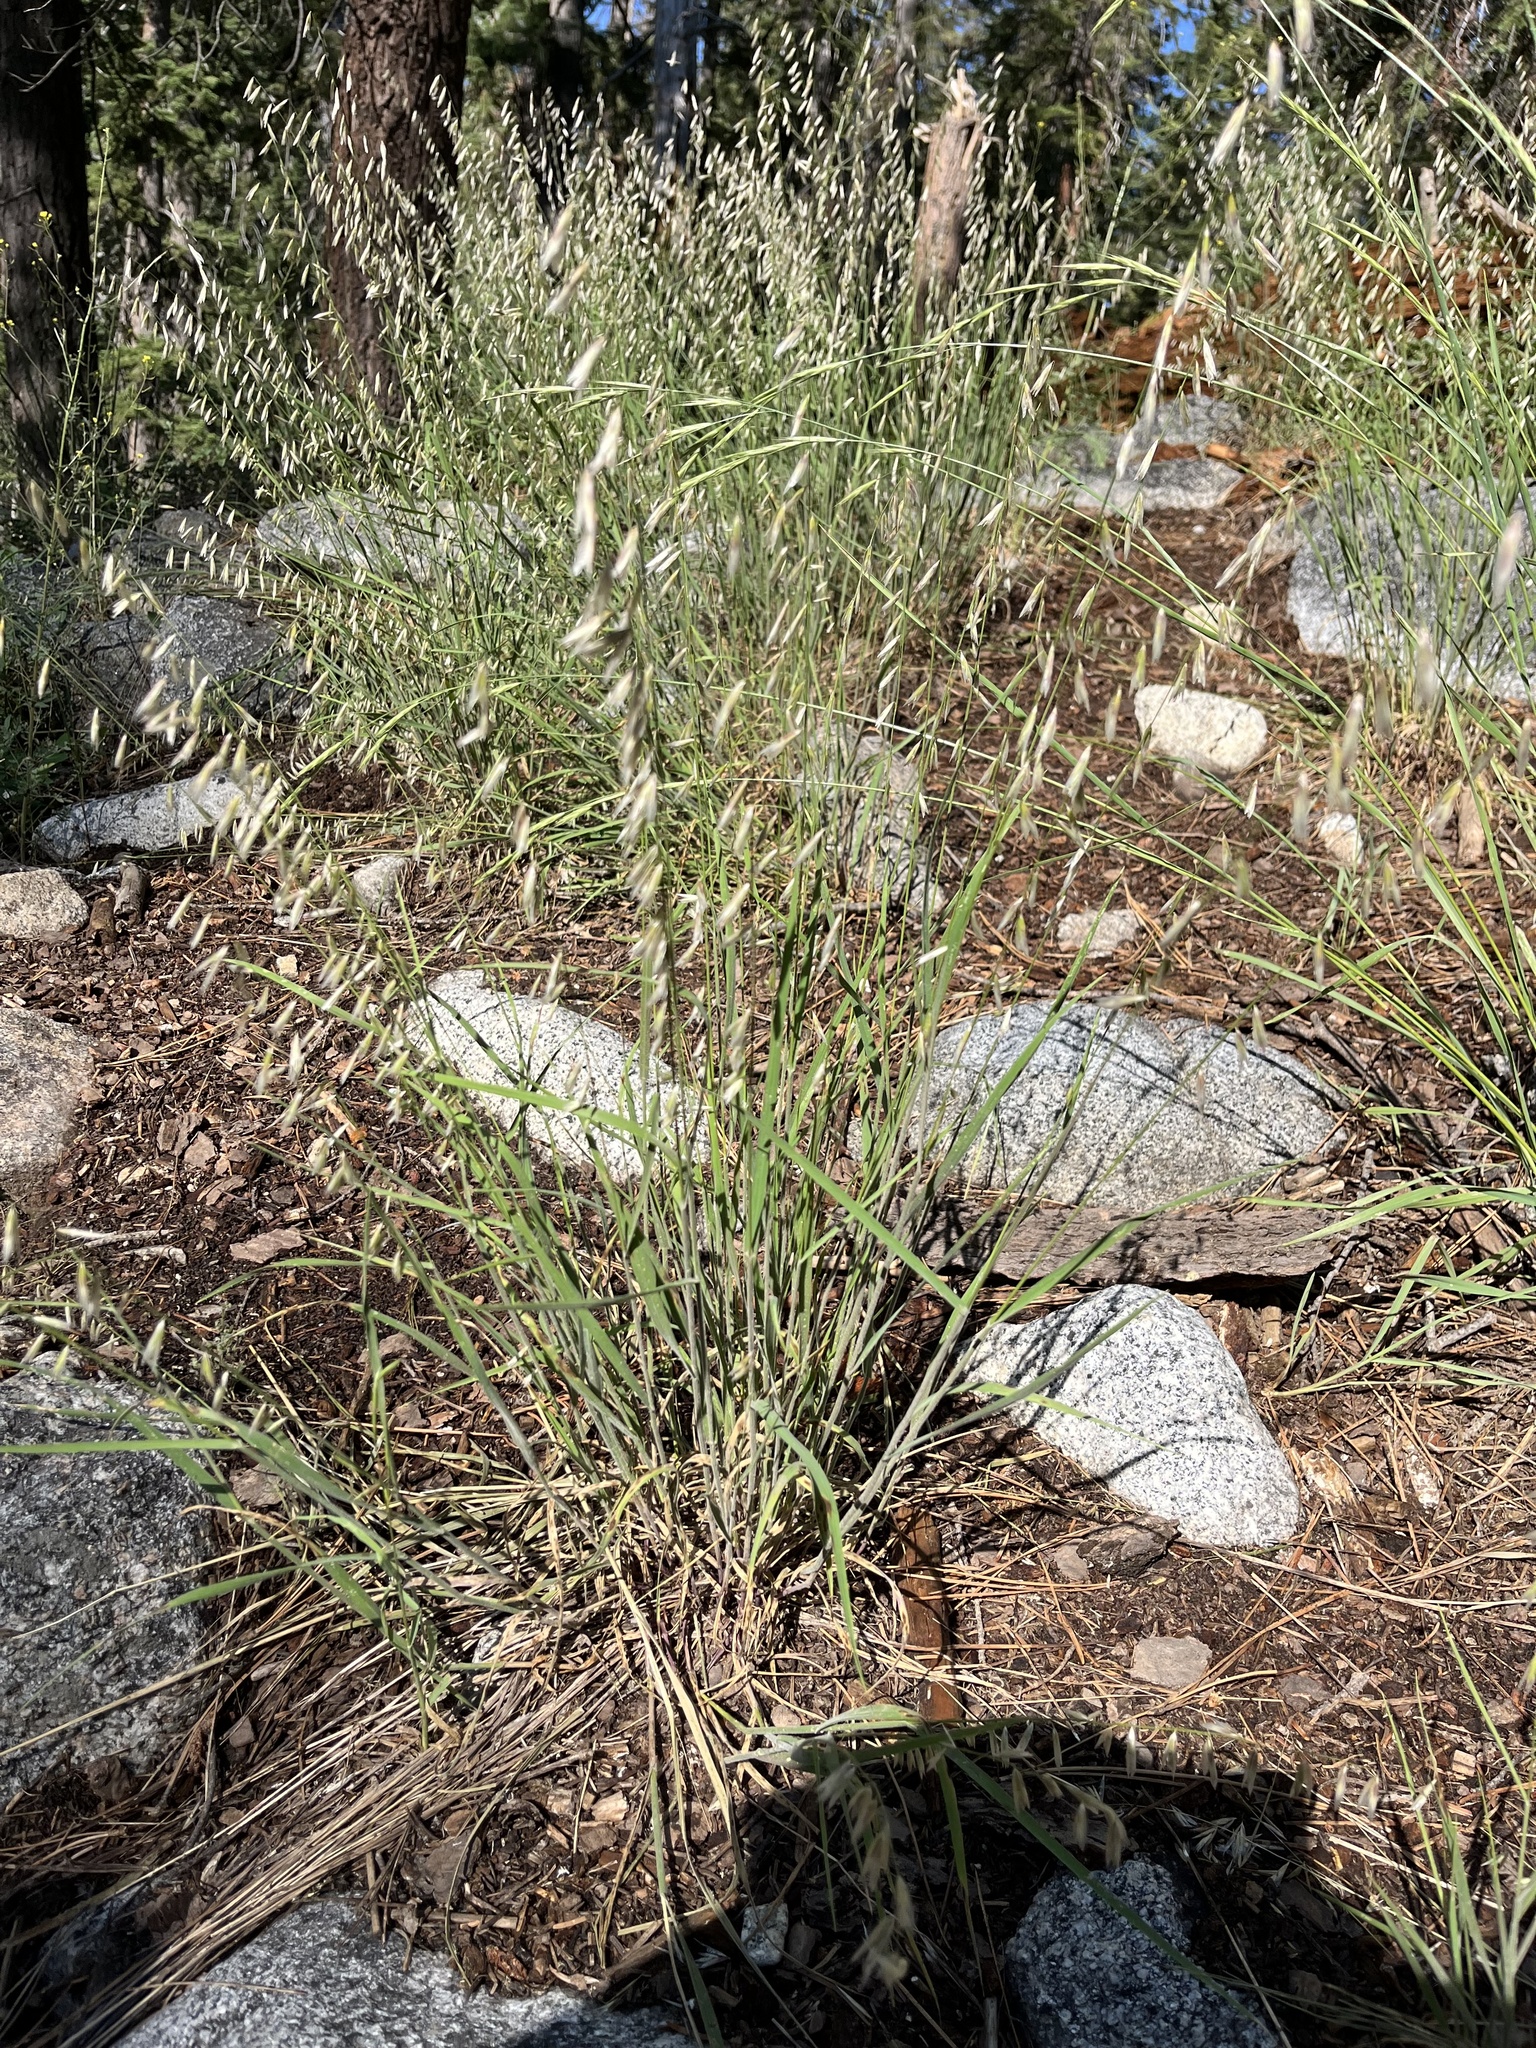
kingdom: Plantae
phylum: Tracheophyta
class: Liliopsida
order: Poales
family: Poaceae
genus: Melica
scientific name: Melica stricta
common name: Rock melic
